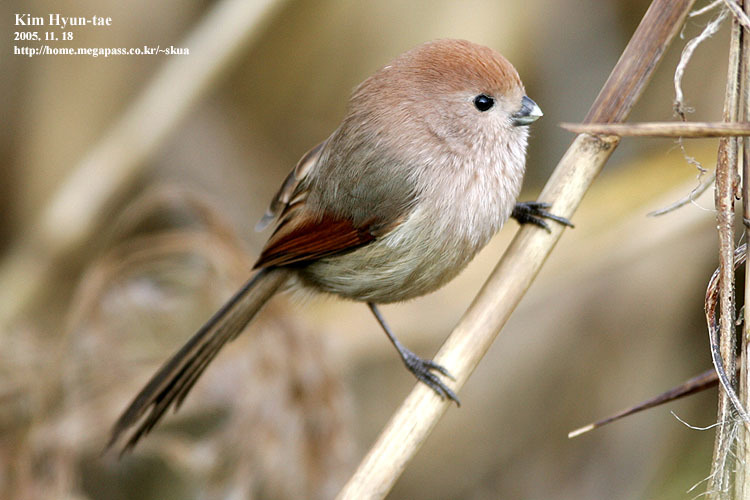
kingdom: Animalia
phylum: Chordata
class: Aves
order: Passeriformes
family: Sylviidae
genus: Sinosuthora
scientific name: Sinosuthora webbiana
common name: Vinous-throated parrotbill
